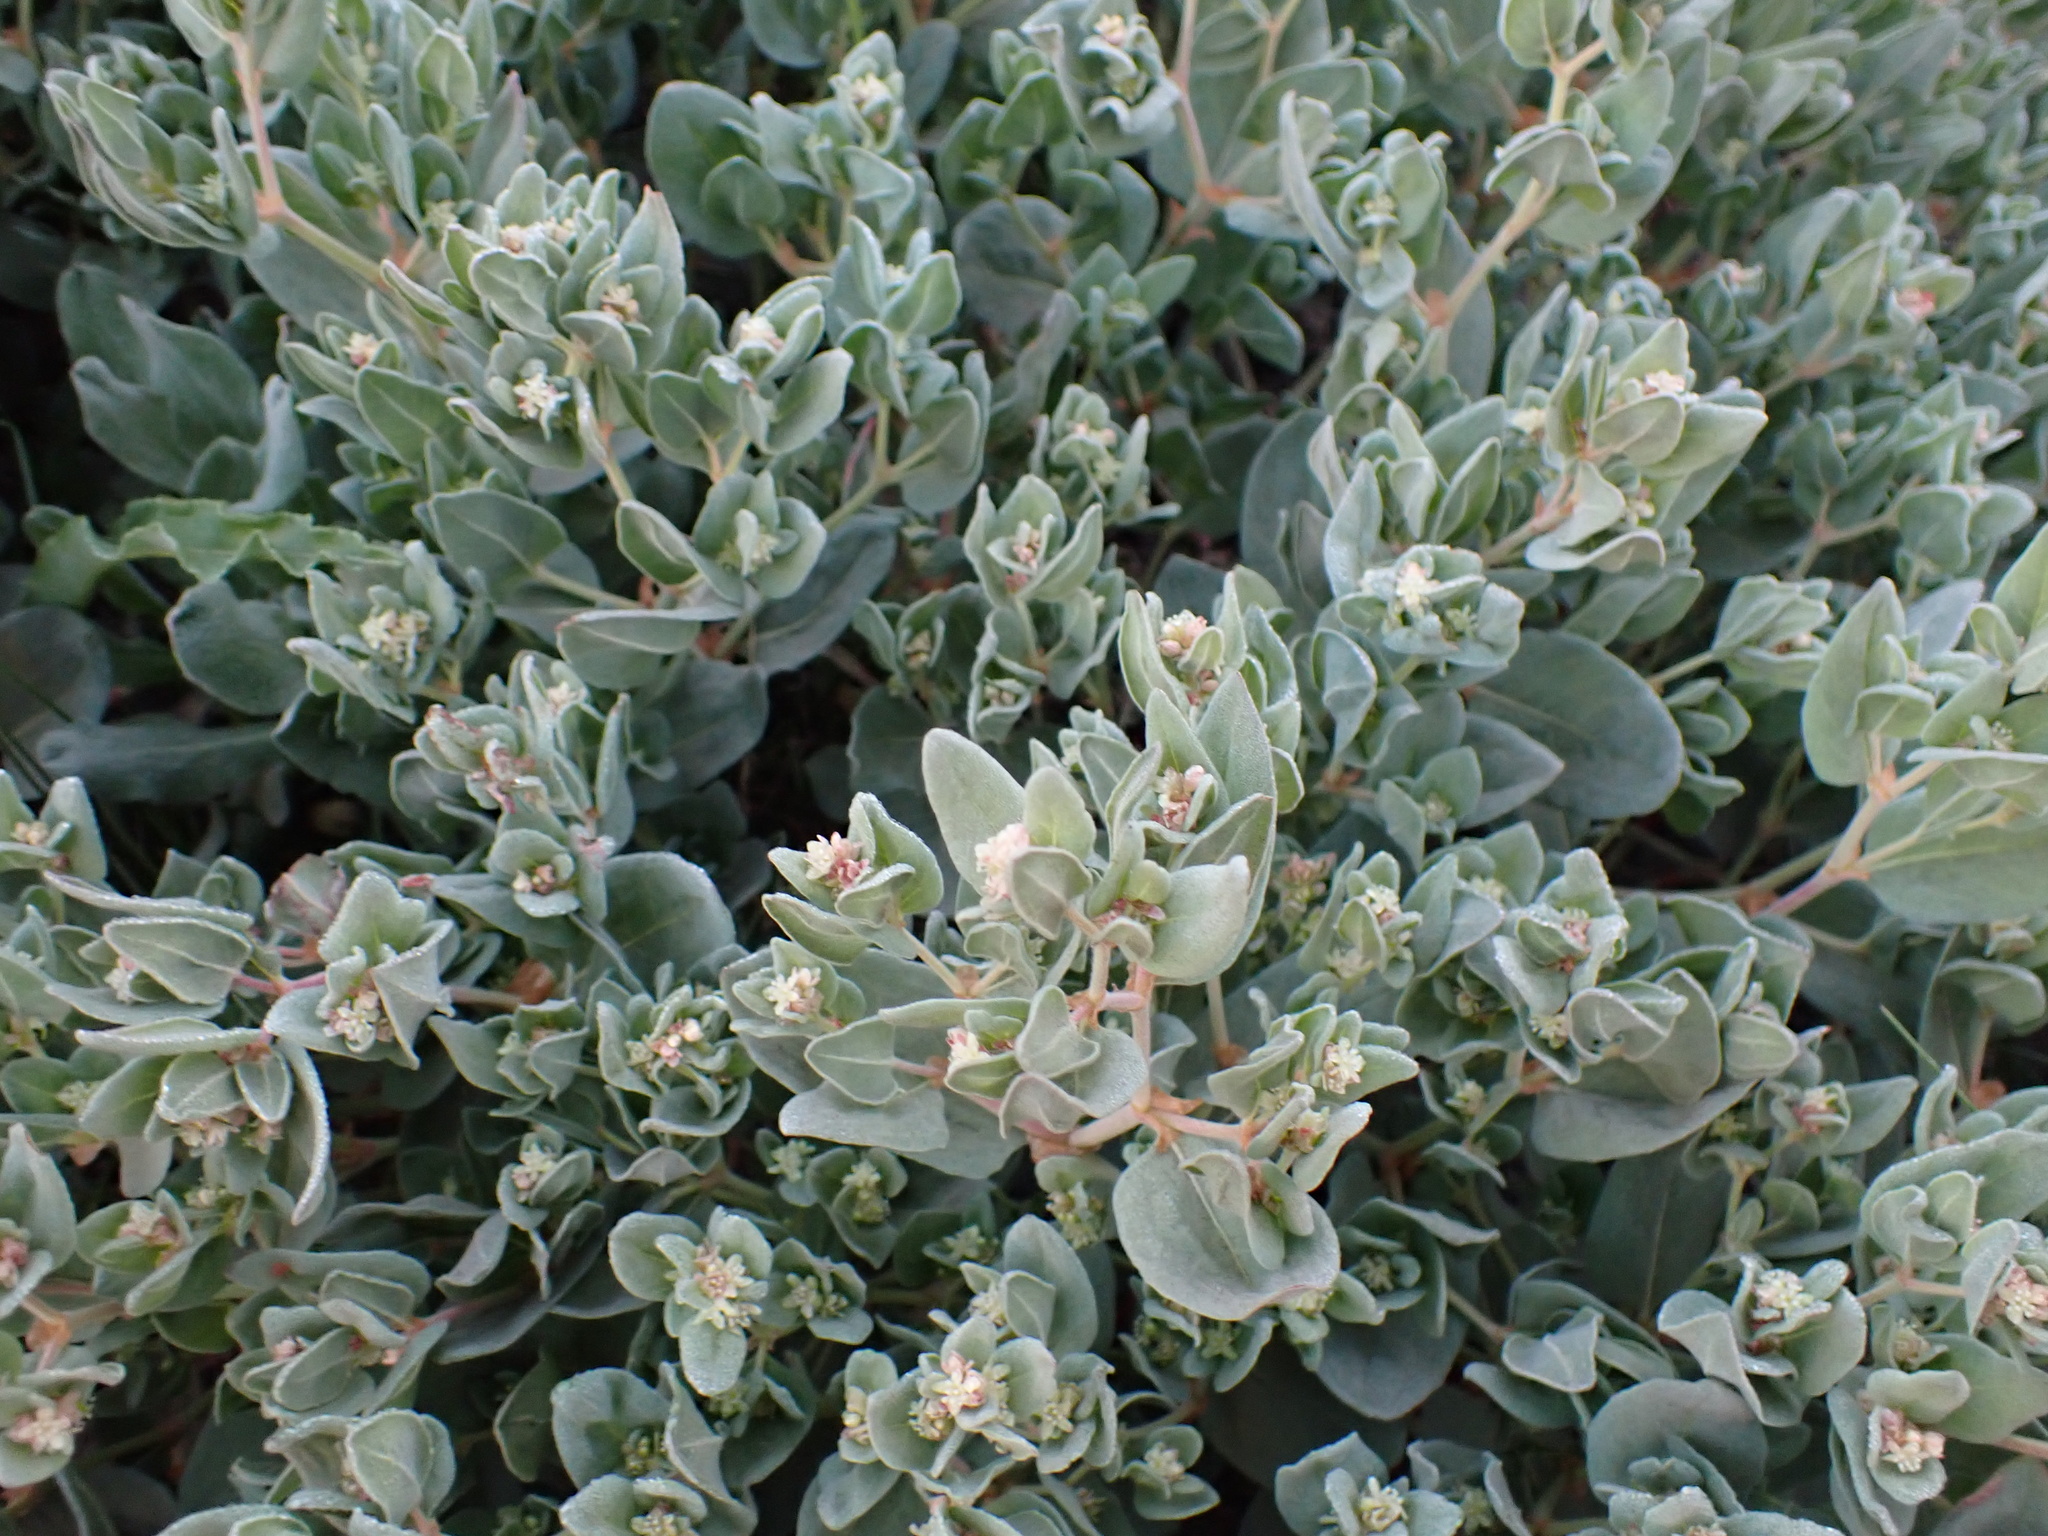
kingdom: Plantae
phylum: Tracheophyta
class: Magnoliopsida
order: Caryophyllales
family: Polygonaceae
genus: Koenigia
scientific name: Koenigia davisiae
